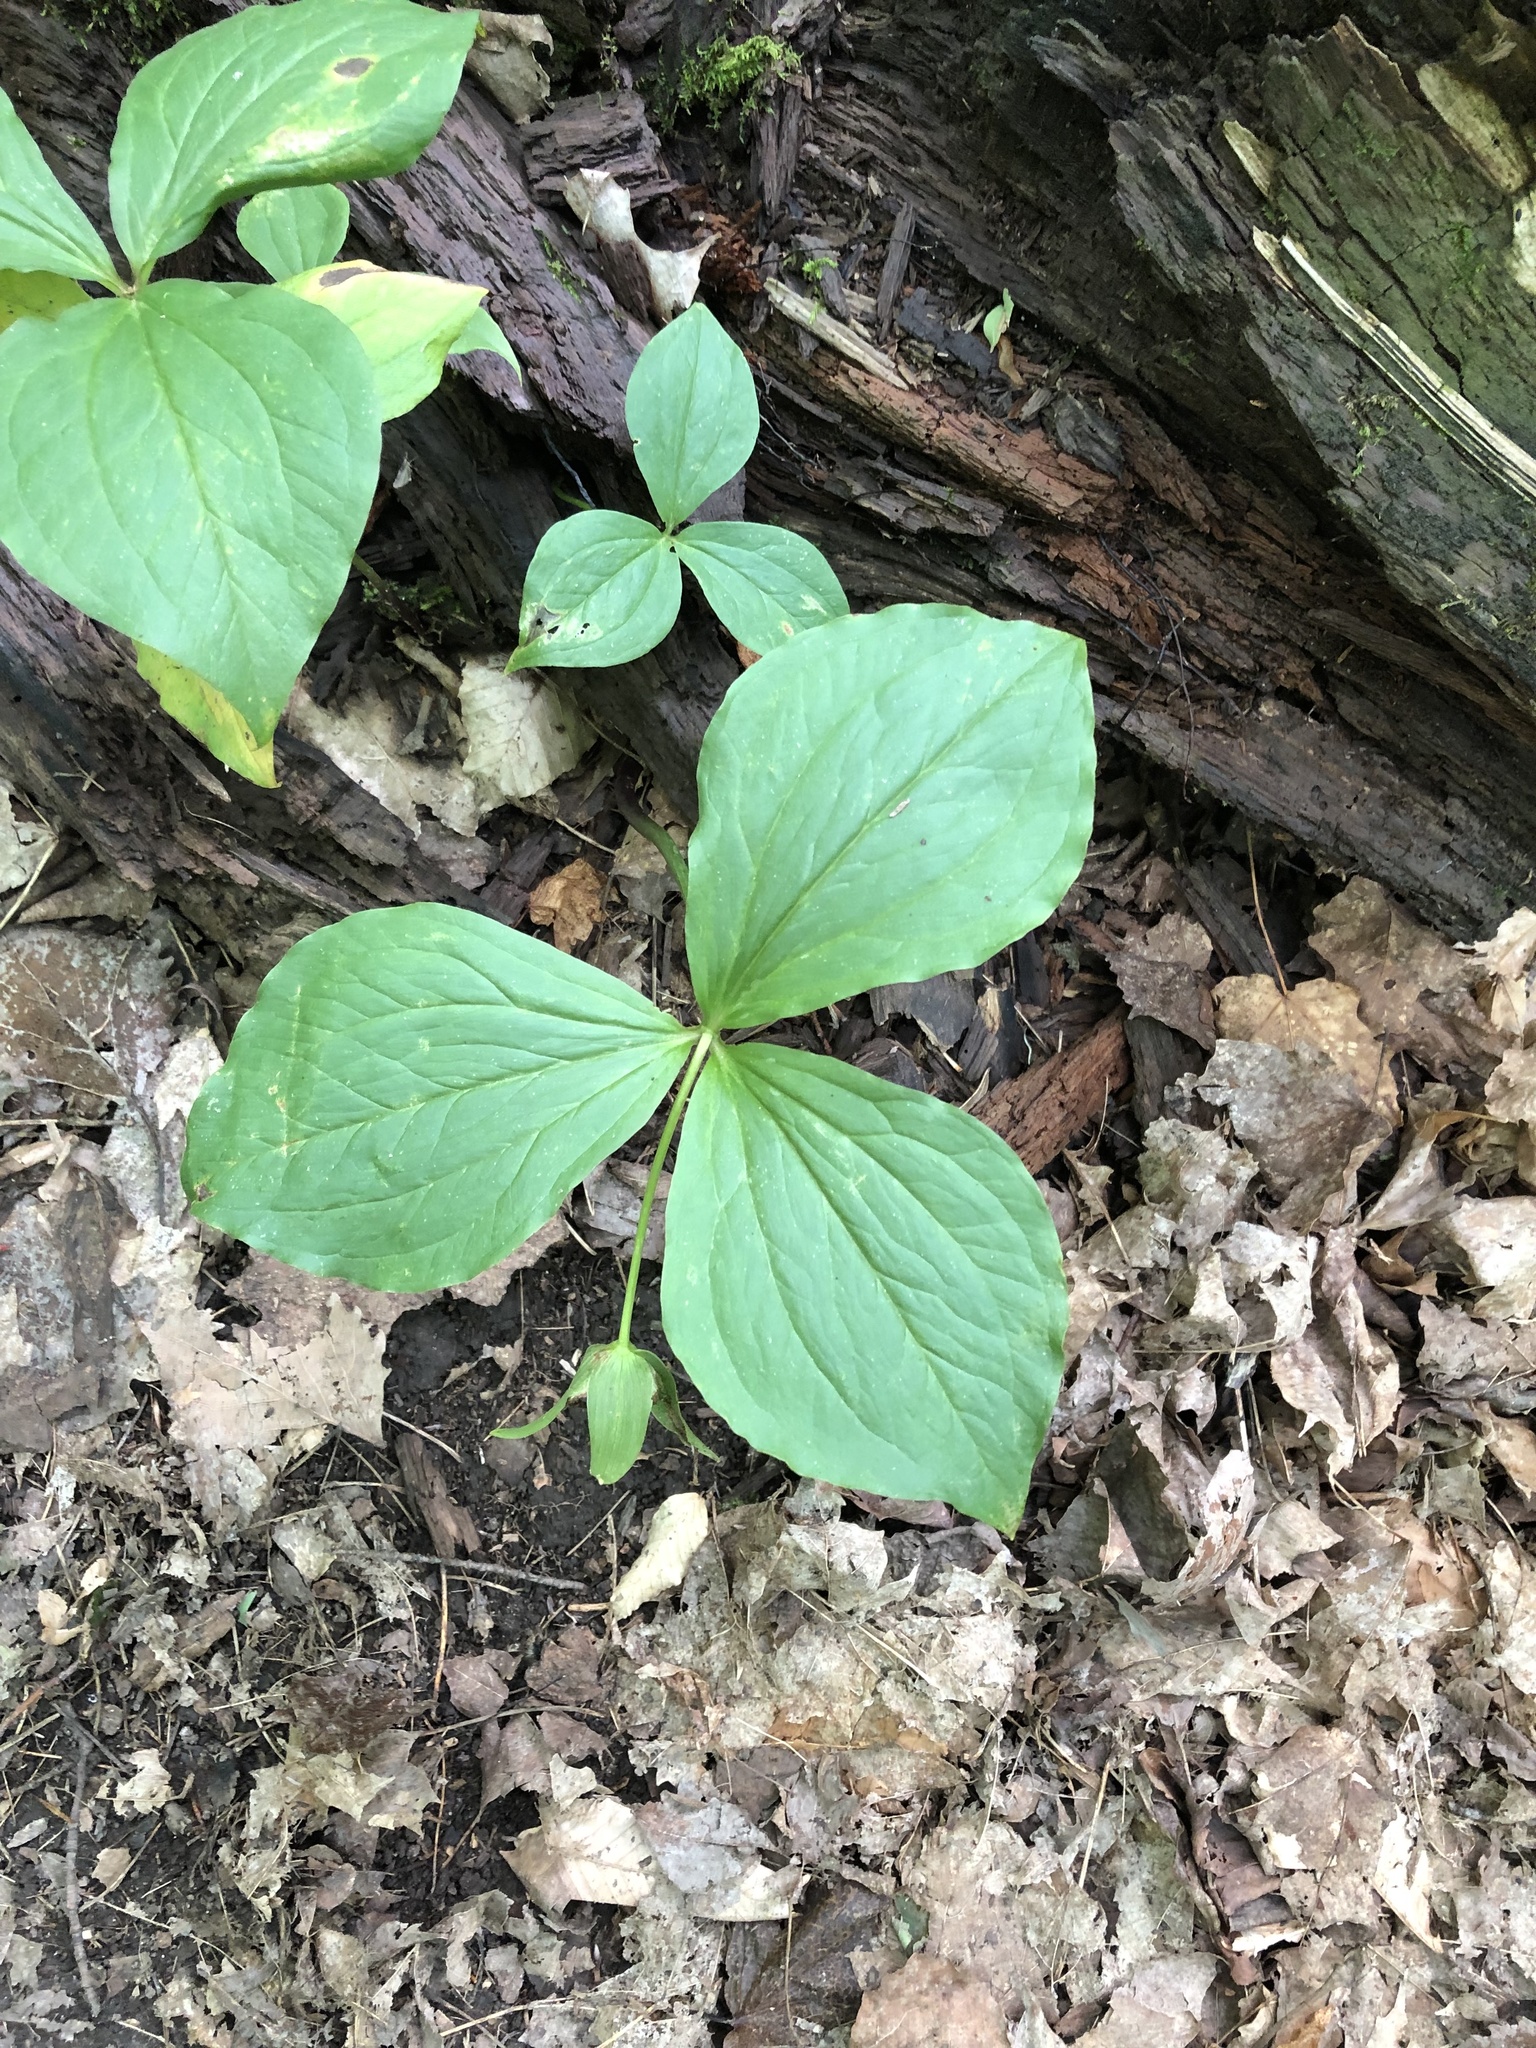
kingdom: Plantae
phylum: Tracheophyta
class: Liliopsida
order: Liliales
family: Melanthiaceae
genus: Trillium
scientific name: Trillium grandiflorum
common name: Great white trillium
